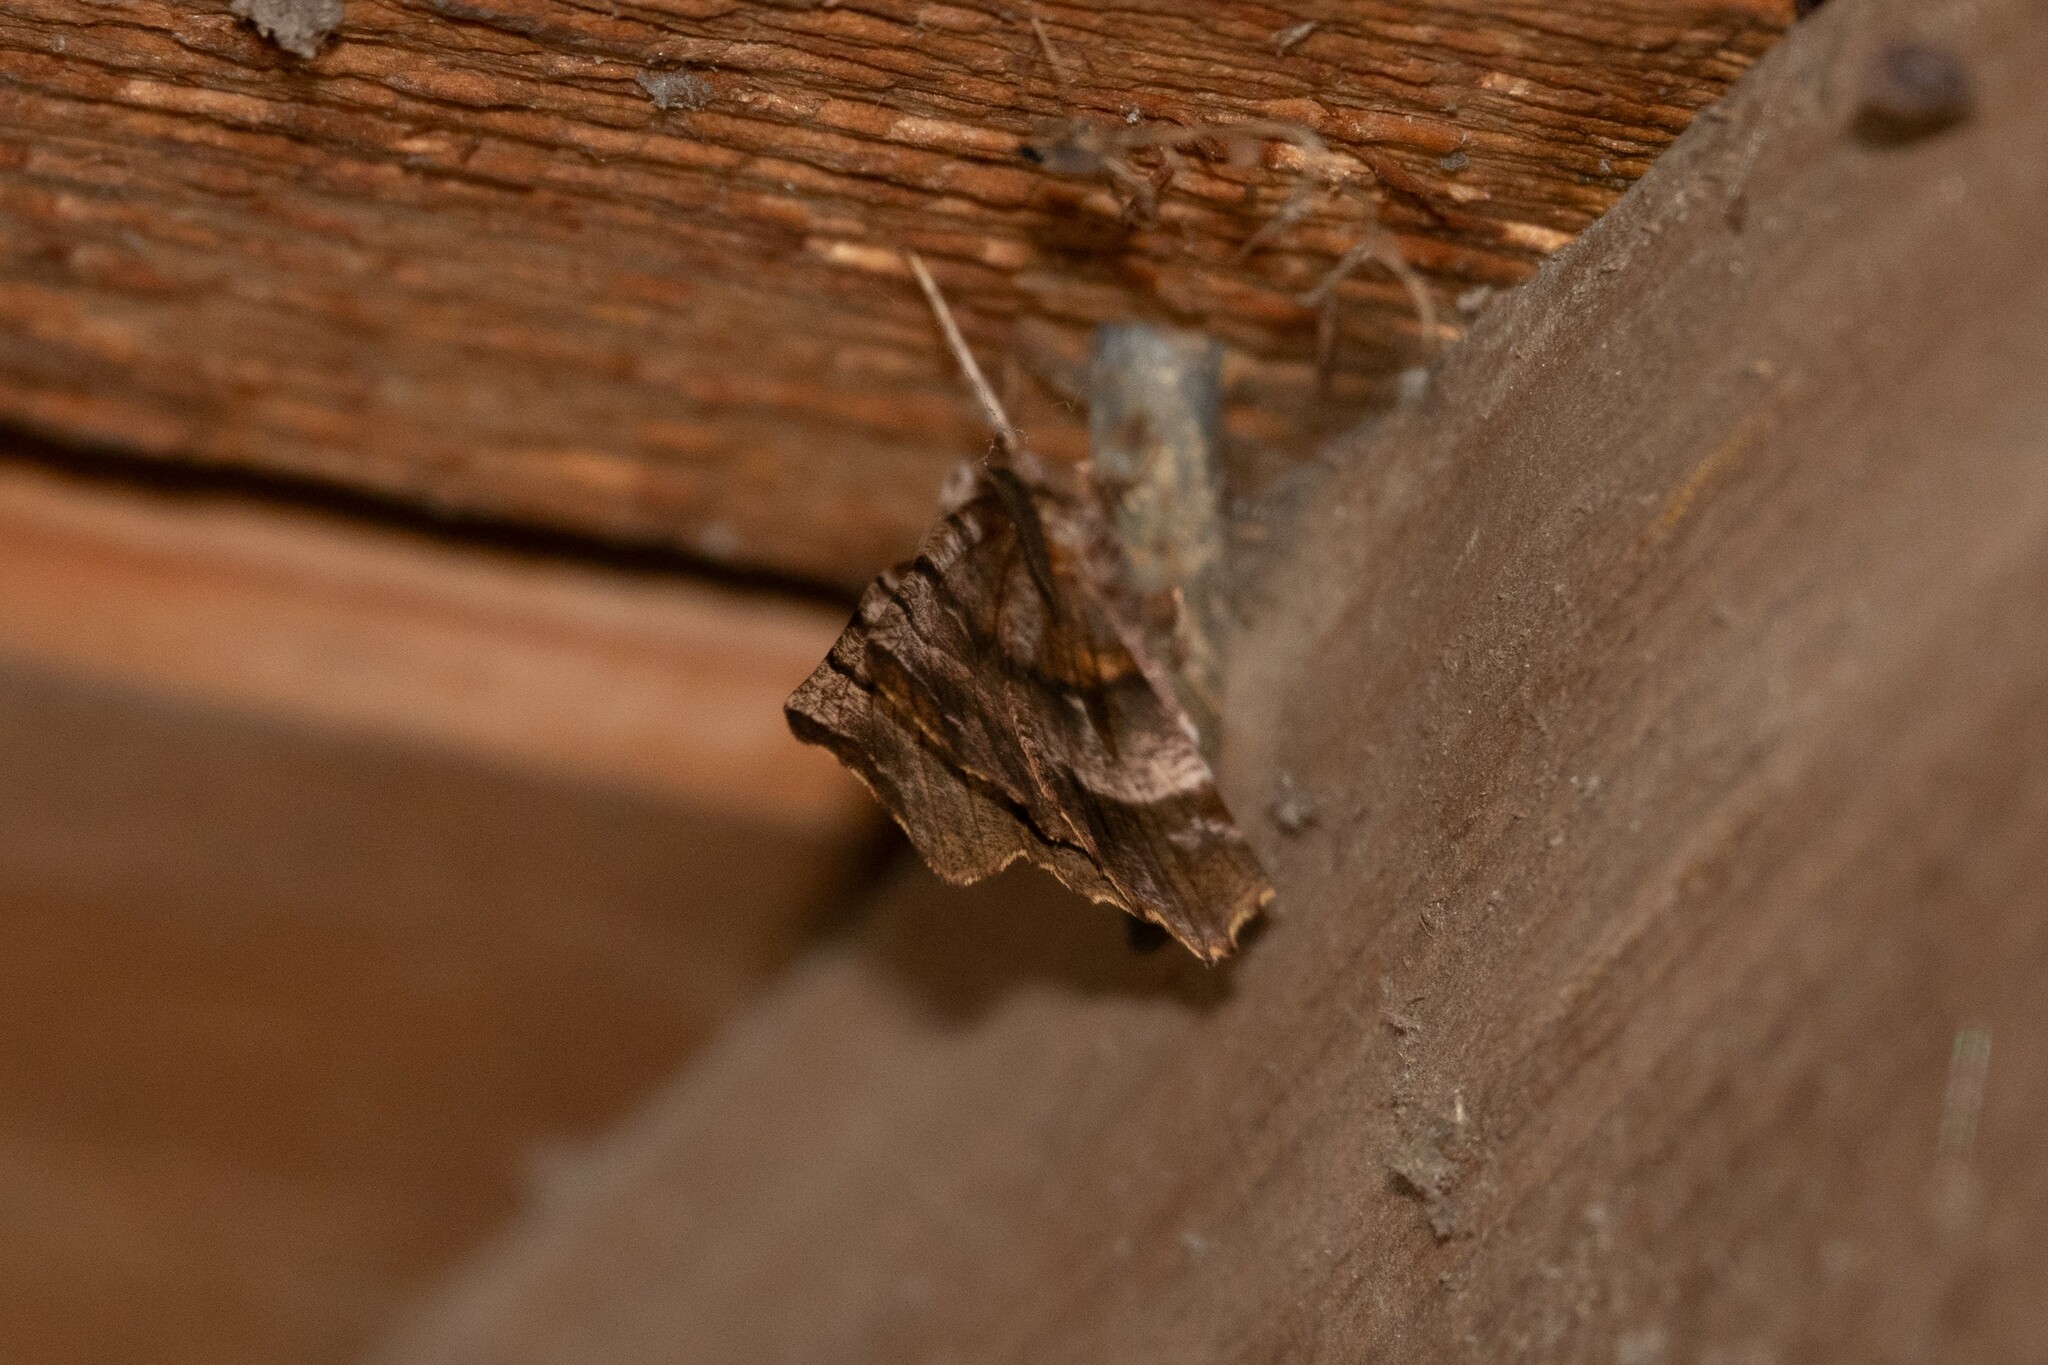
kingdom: Animalia
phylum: Arthropoda
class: Insecta
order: Lepidoptera
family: Geometridae
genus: Selenia
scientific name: Selenia dentaria
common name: Early thorn
